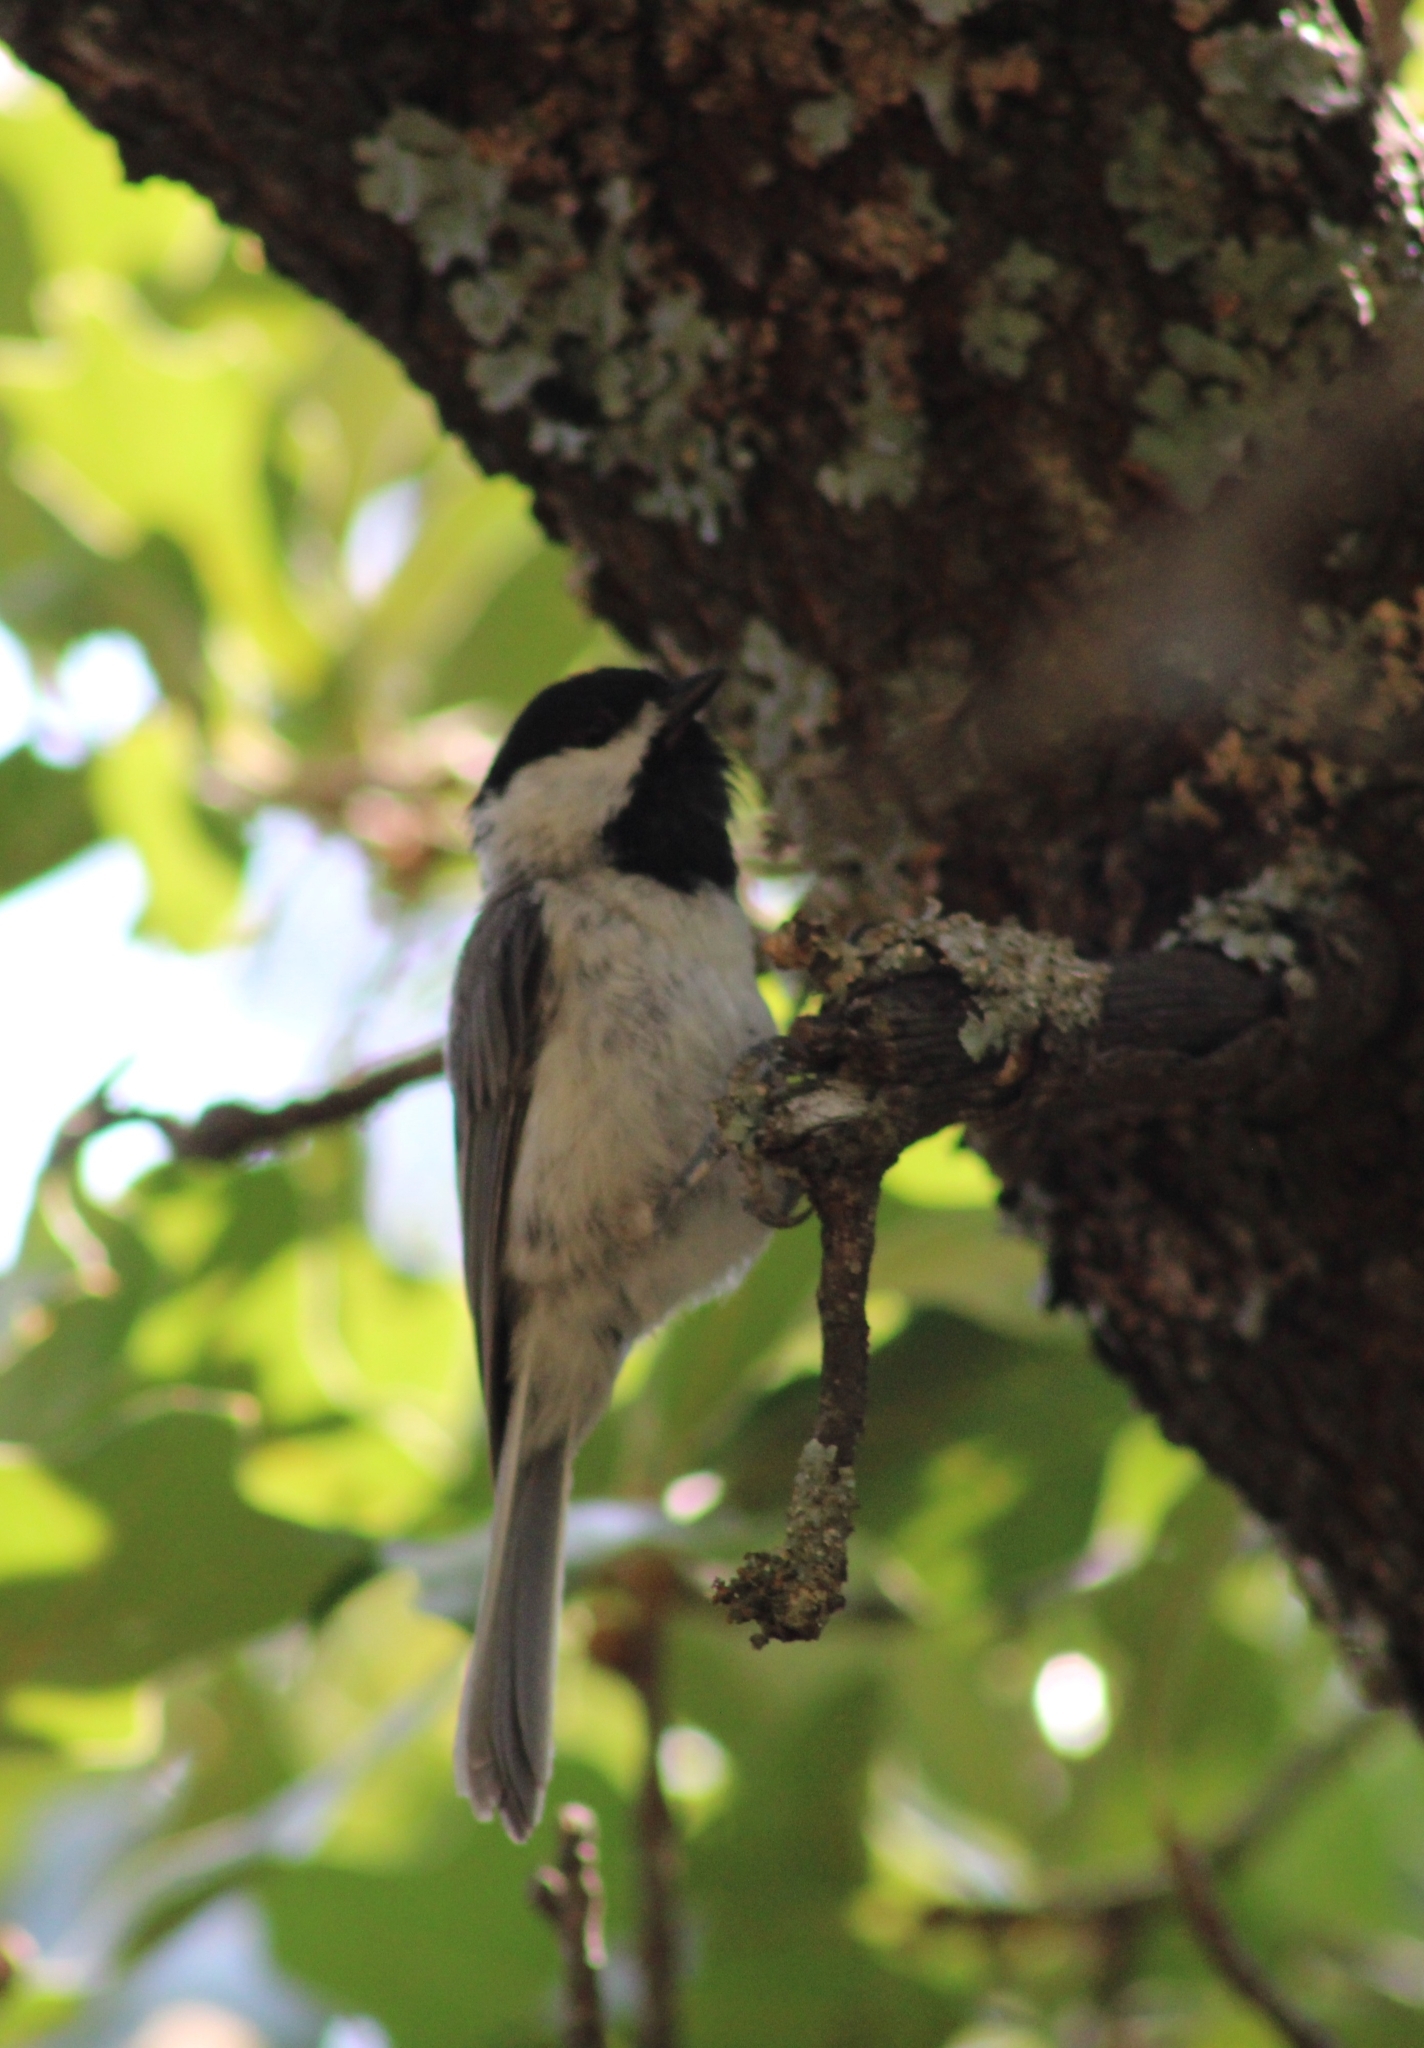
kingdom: Animalia
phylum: Chordata
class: Aves
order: Passeriformes
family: Paridae
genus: Poecile
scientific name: Poecile carolinensis
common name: Carolina chickadee
